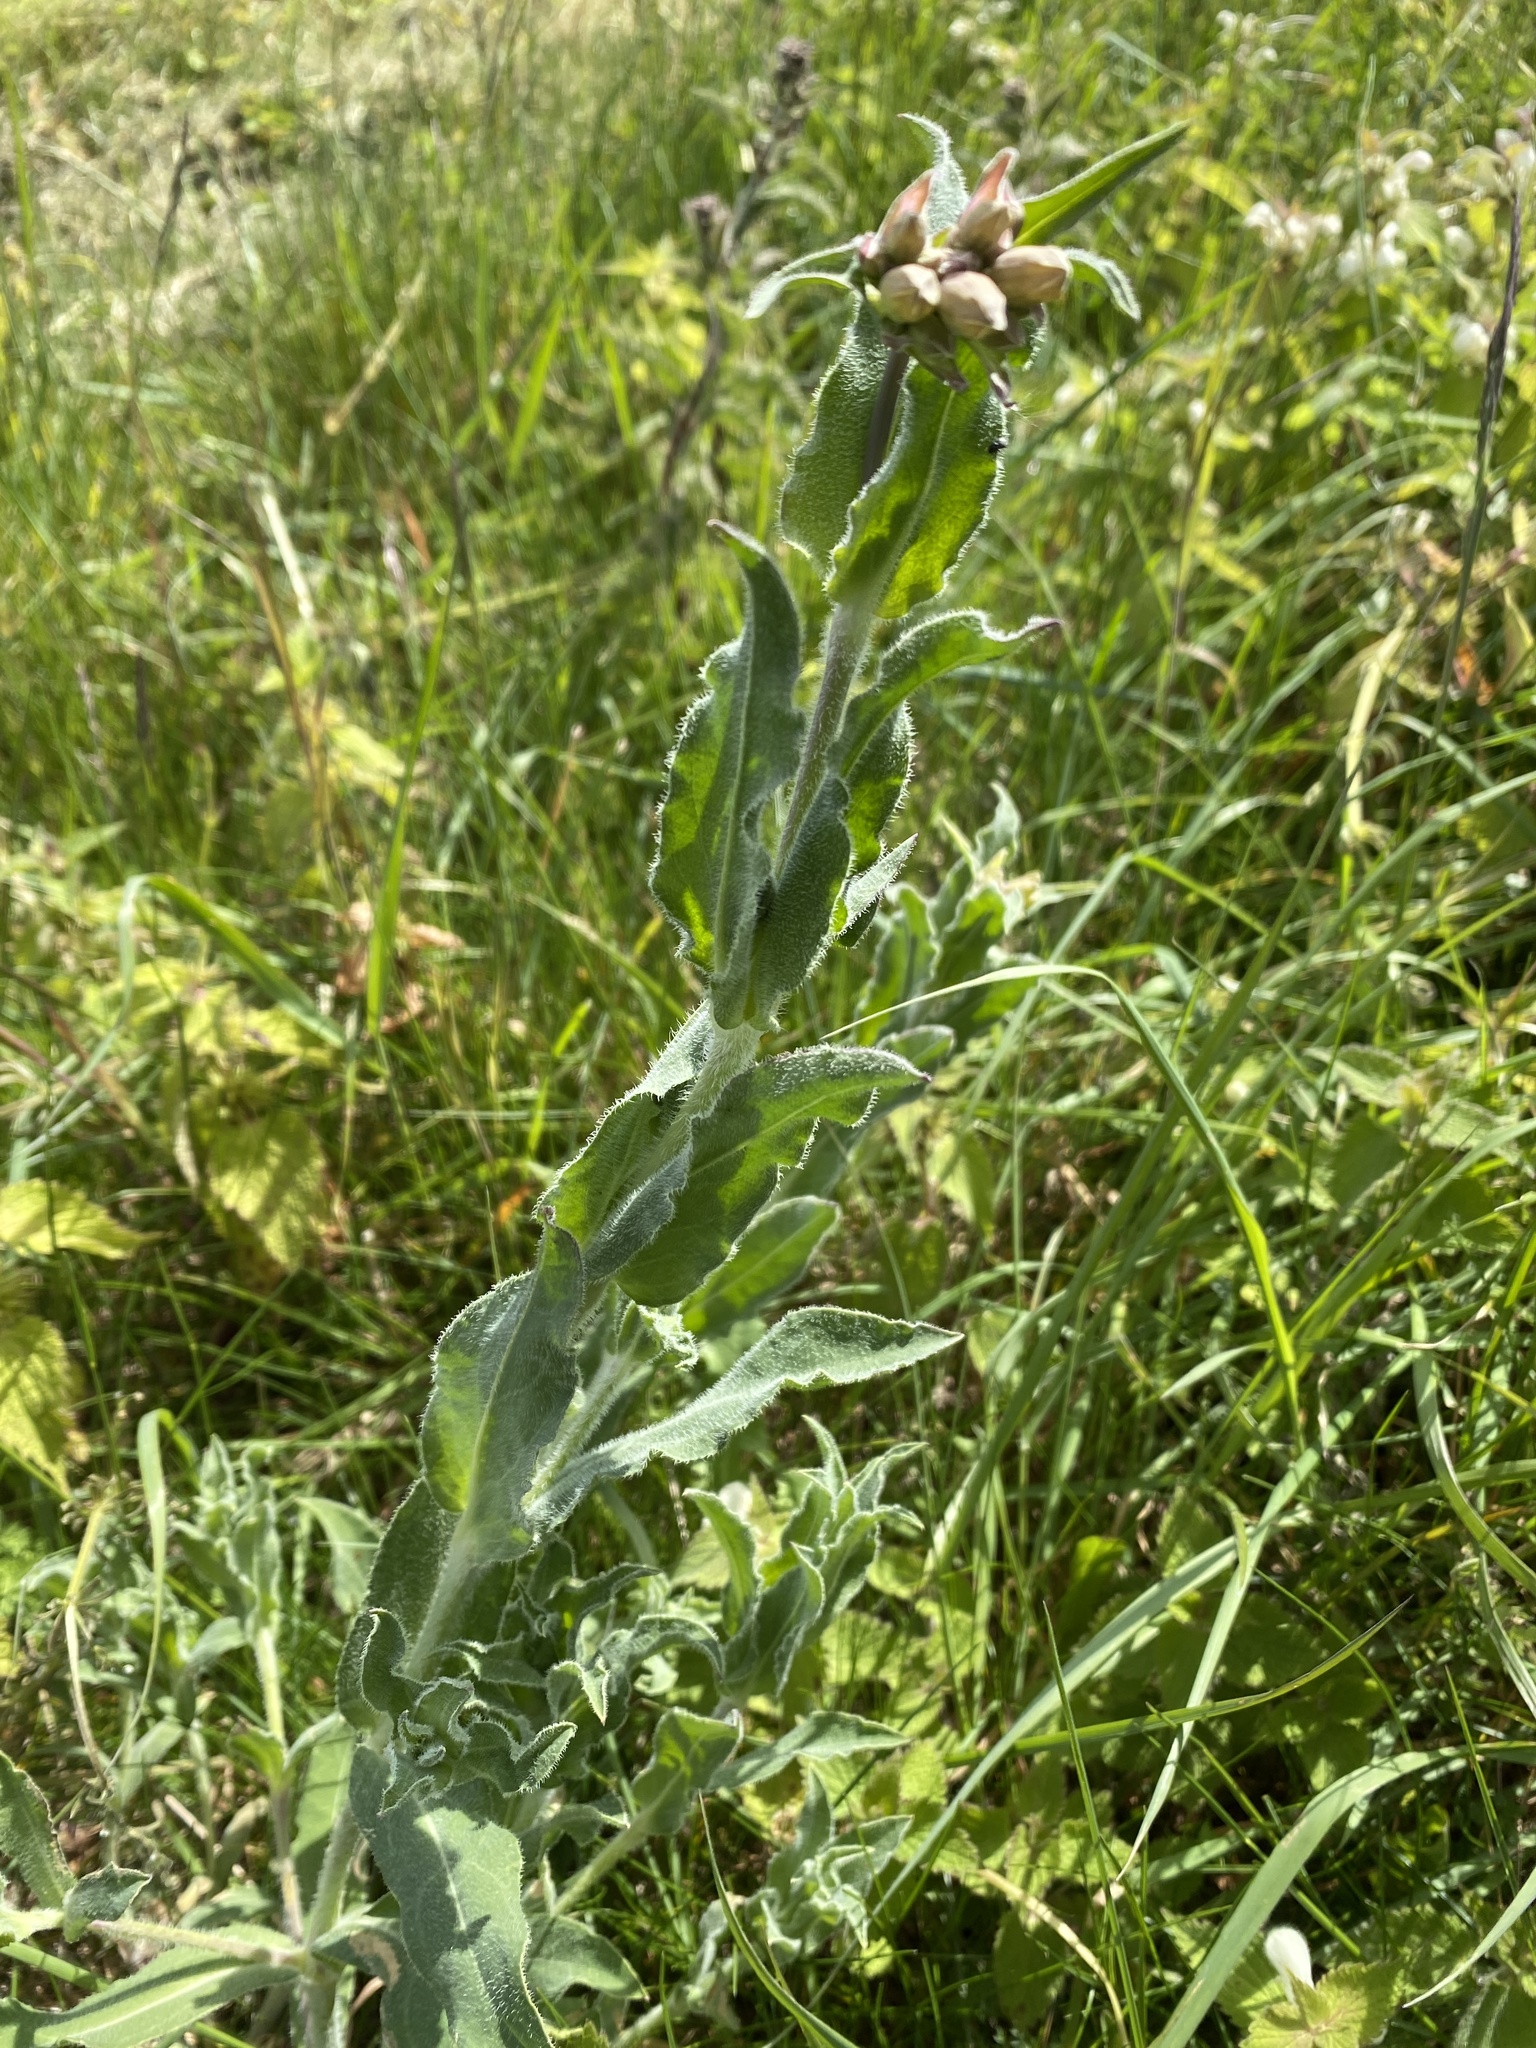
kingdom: Plantae
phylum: Tracheophyta
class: Magnoliopsida
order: Boraginales
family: Boraginaceae
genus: Cynoglossum
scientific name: Cynoglossum officinale
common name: Hound's-tongue
